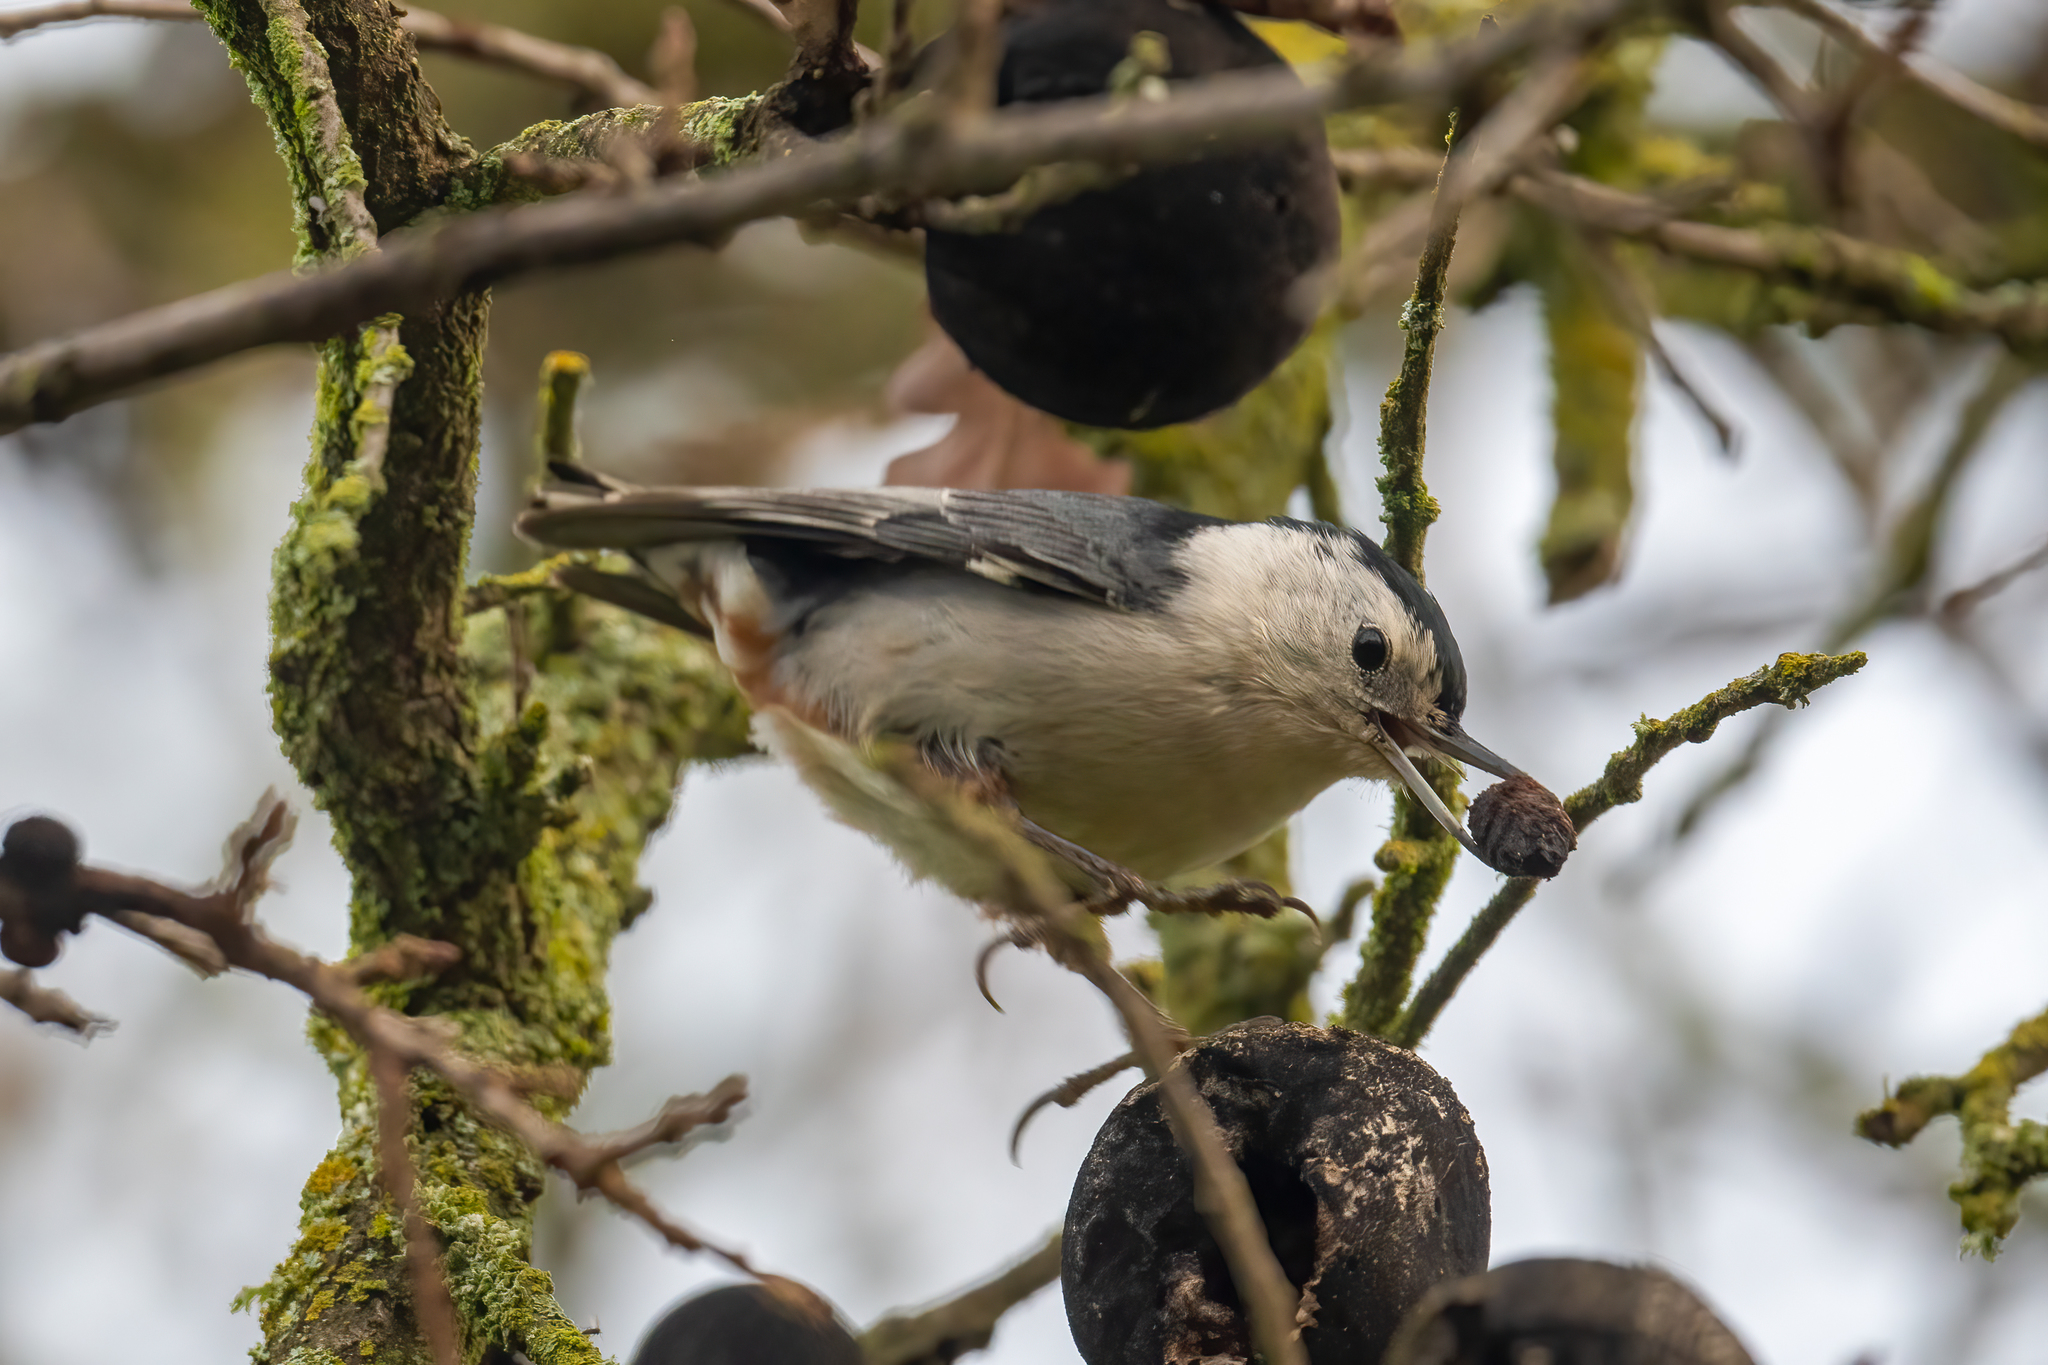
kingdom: Animalia
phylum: Chordata
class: Aves
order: Passeriformes
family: Sittidae
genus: Sitta
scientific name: Sitta carolinensis
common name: White-breasted nuthatch
